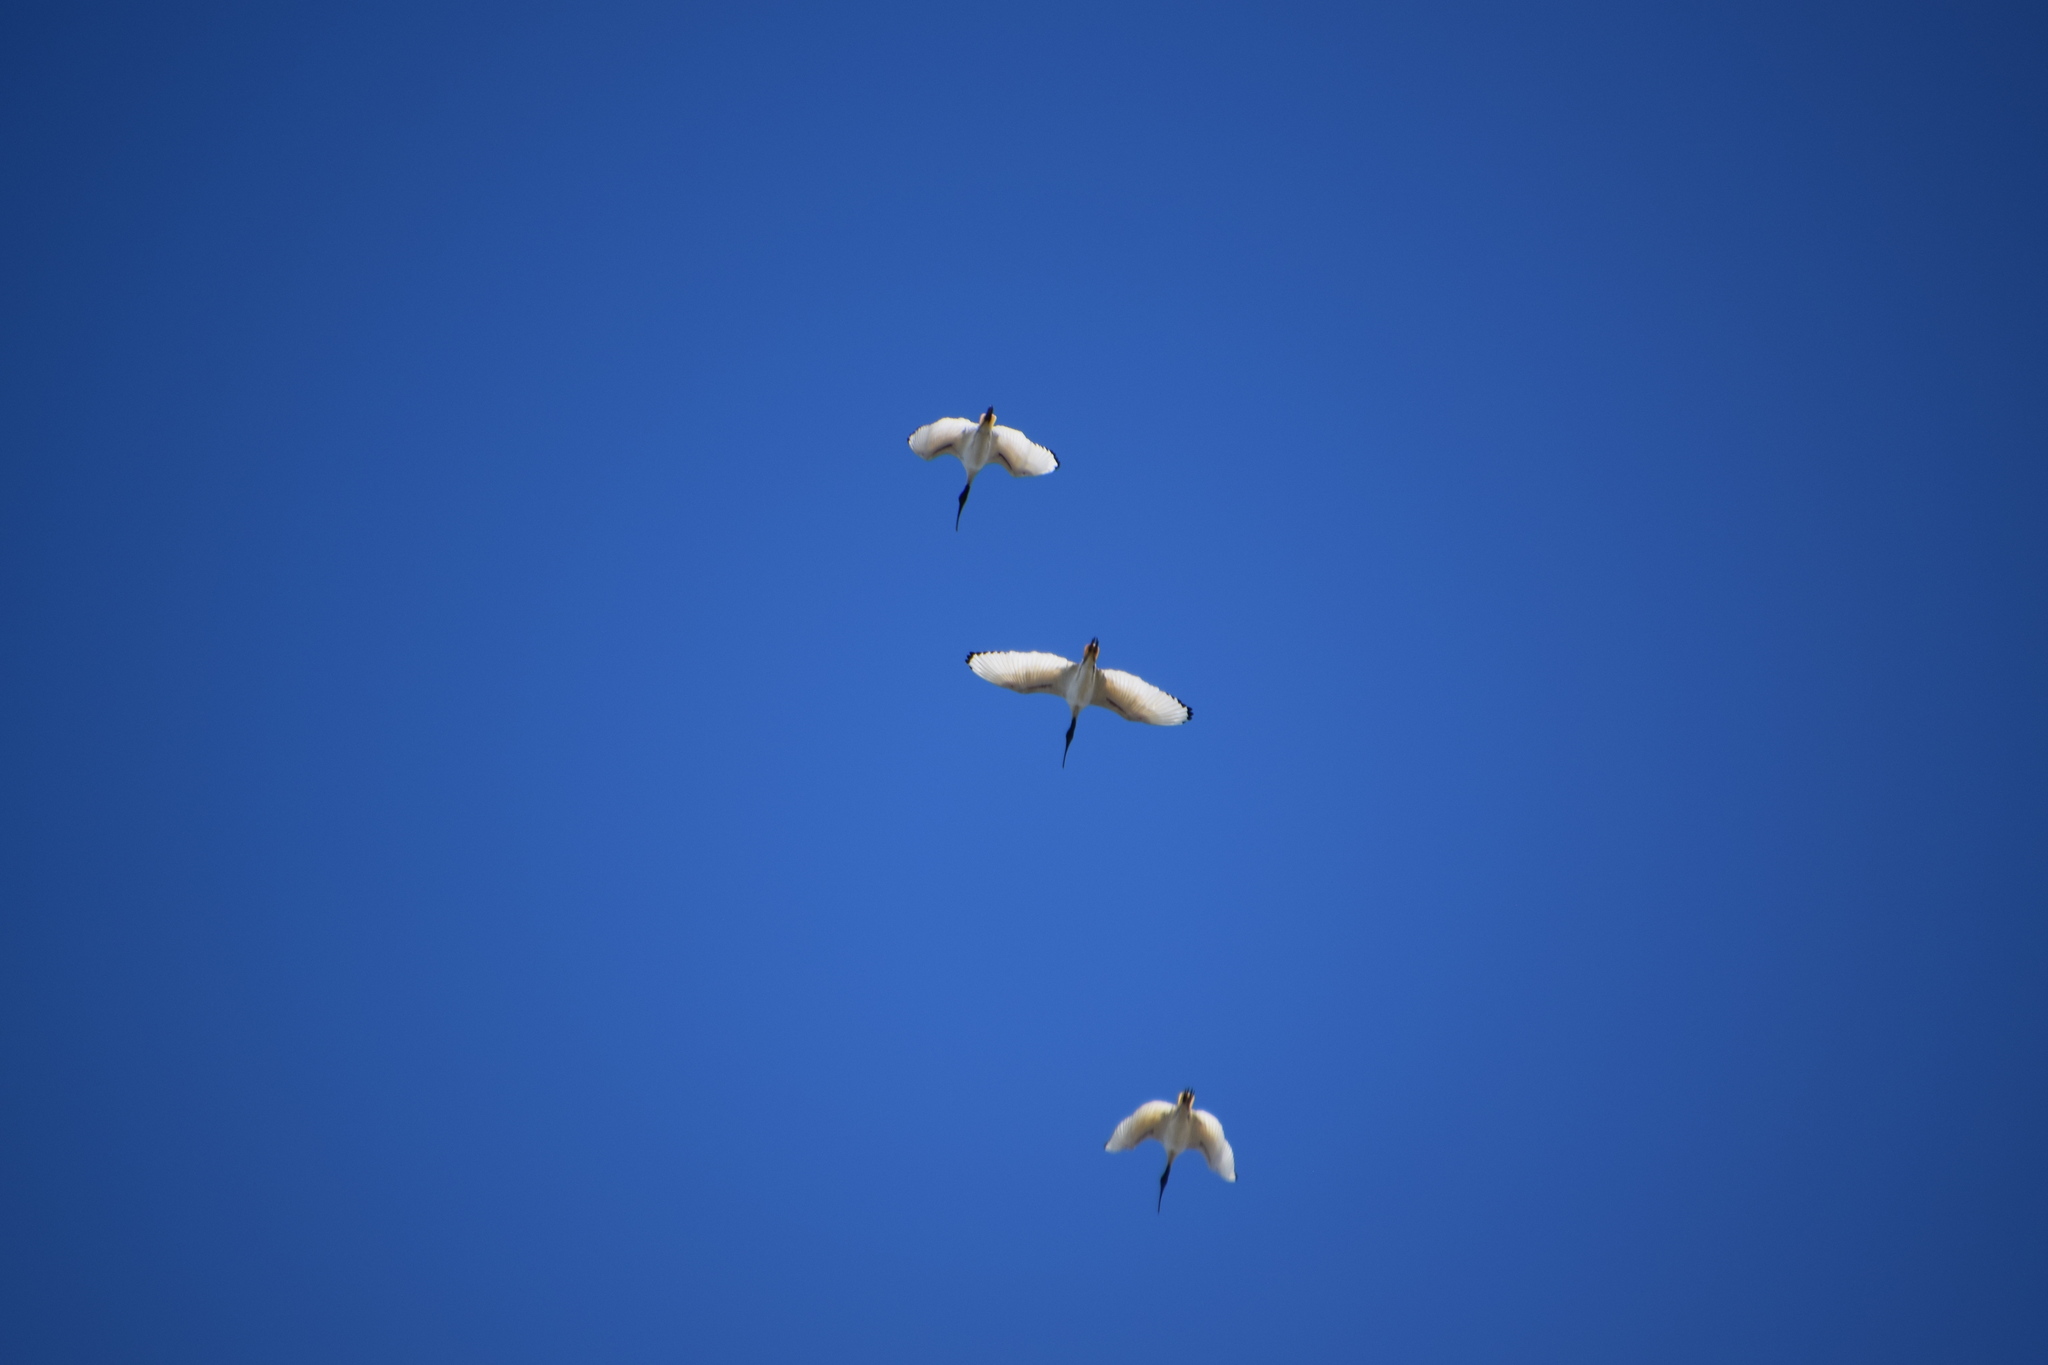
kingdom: Animalia
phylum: Chordata
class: Aves
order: Pelecaniformes
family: Threskiornithidae
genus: Threskiornis
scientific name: Threskiornis molucca
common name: Australian white ibis
